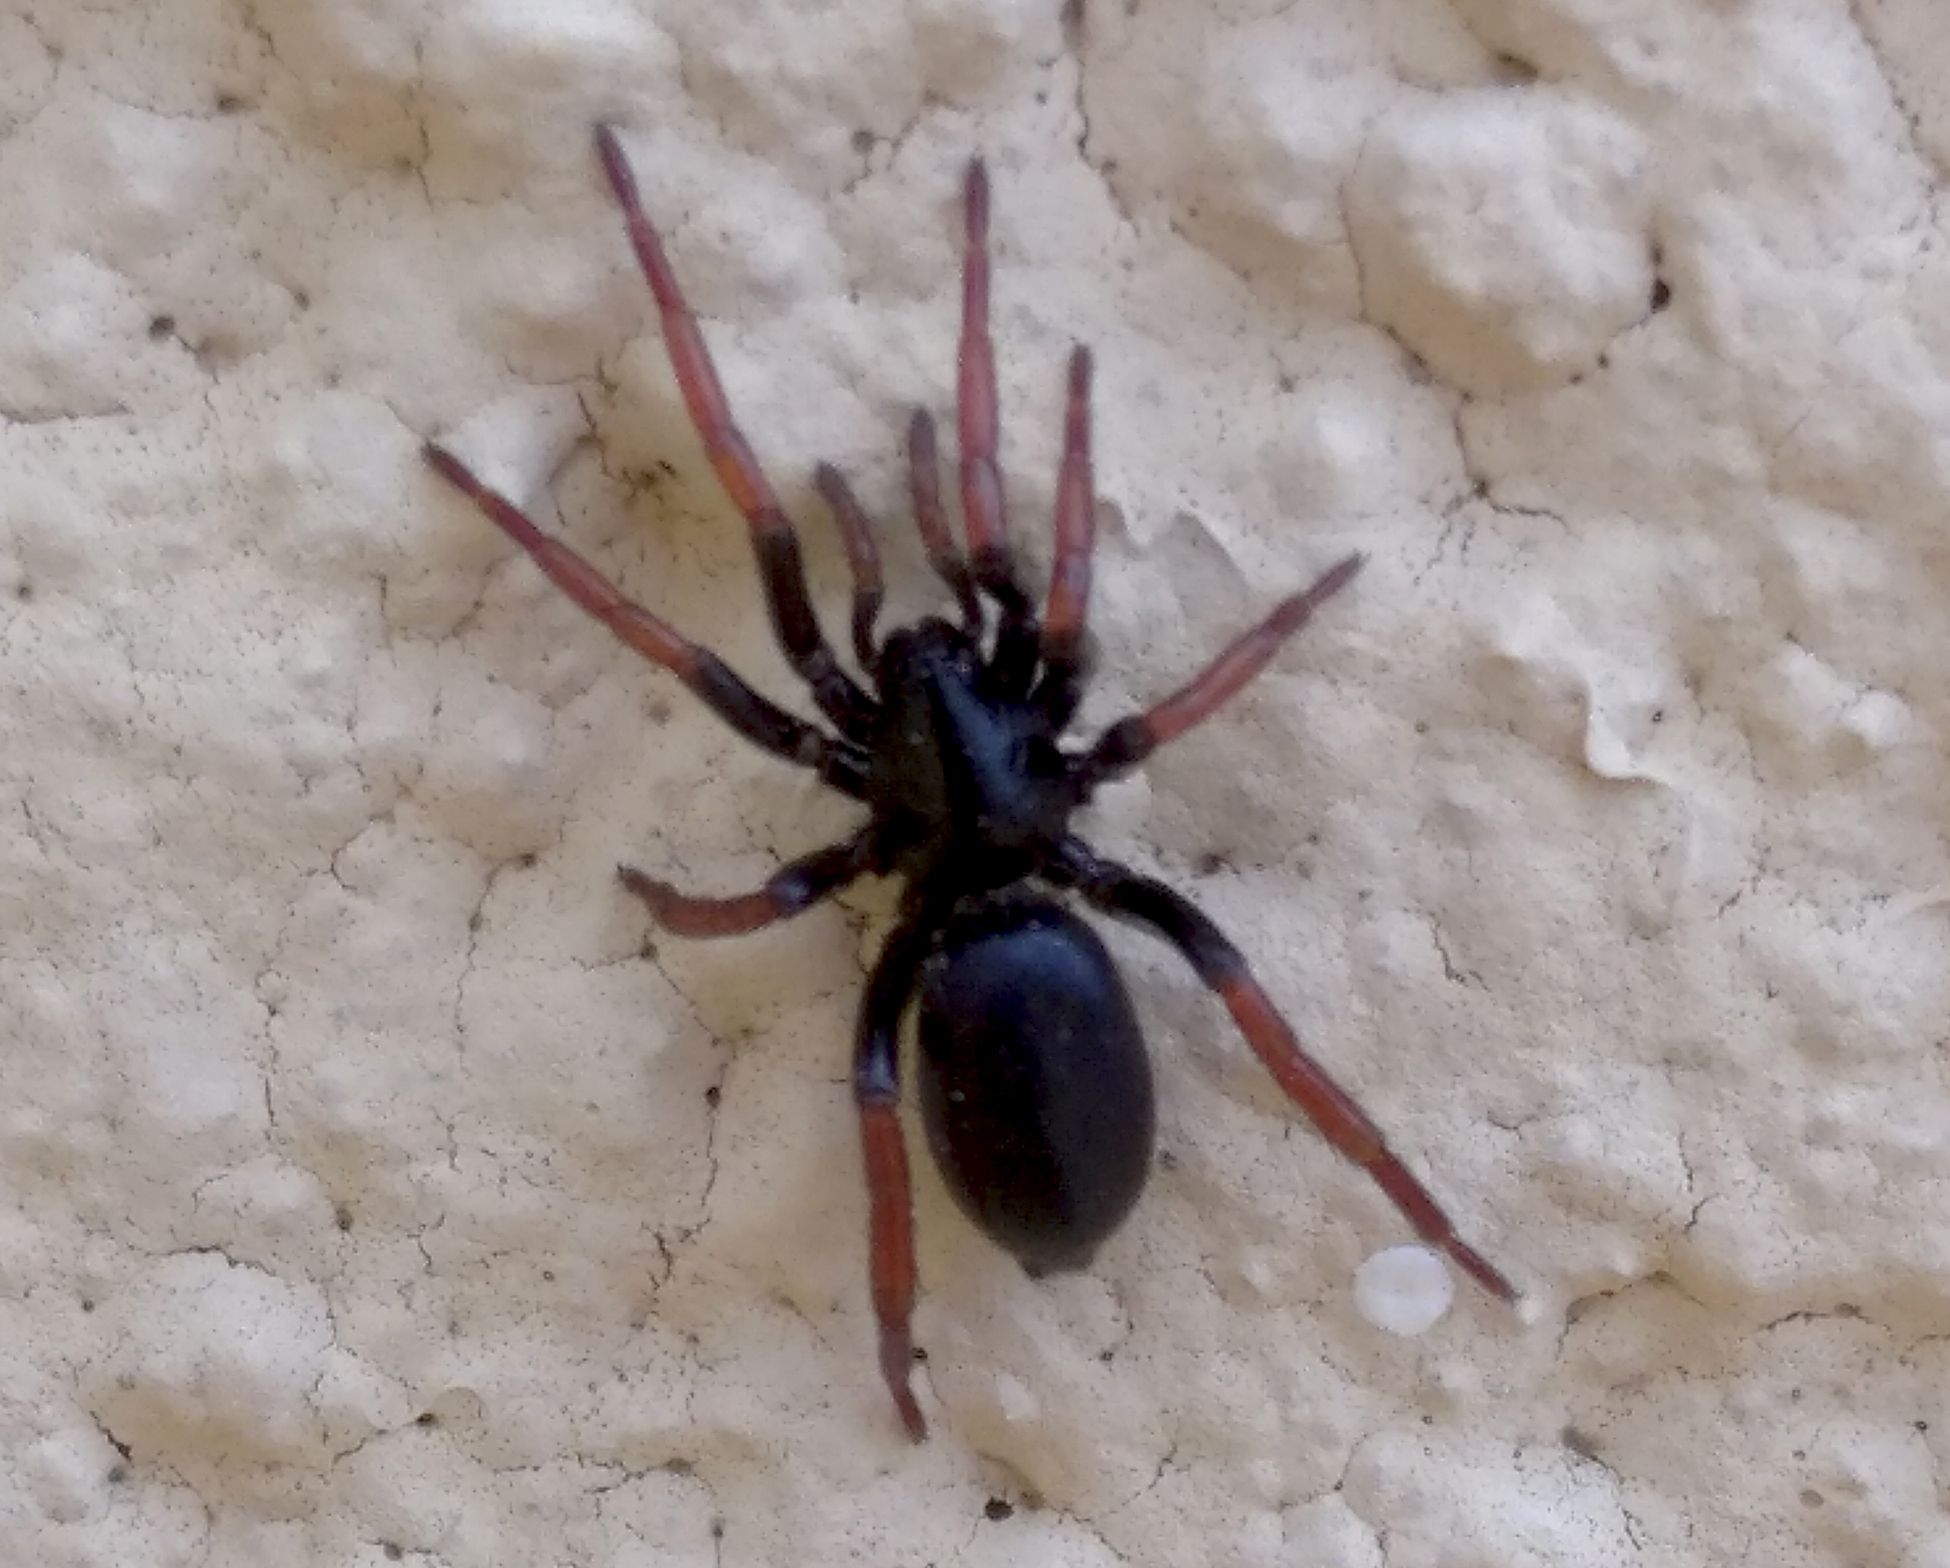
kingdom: Animalia
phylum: Arthropoda
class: Arachnida
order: Araneae
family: Gnaphosidae
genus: Trachyzelotes
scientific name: Trachyzelotes pedestris
